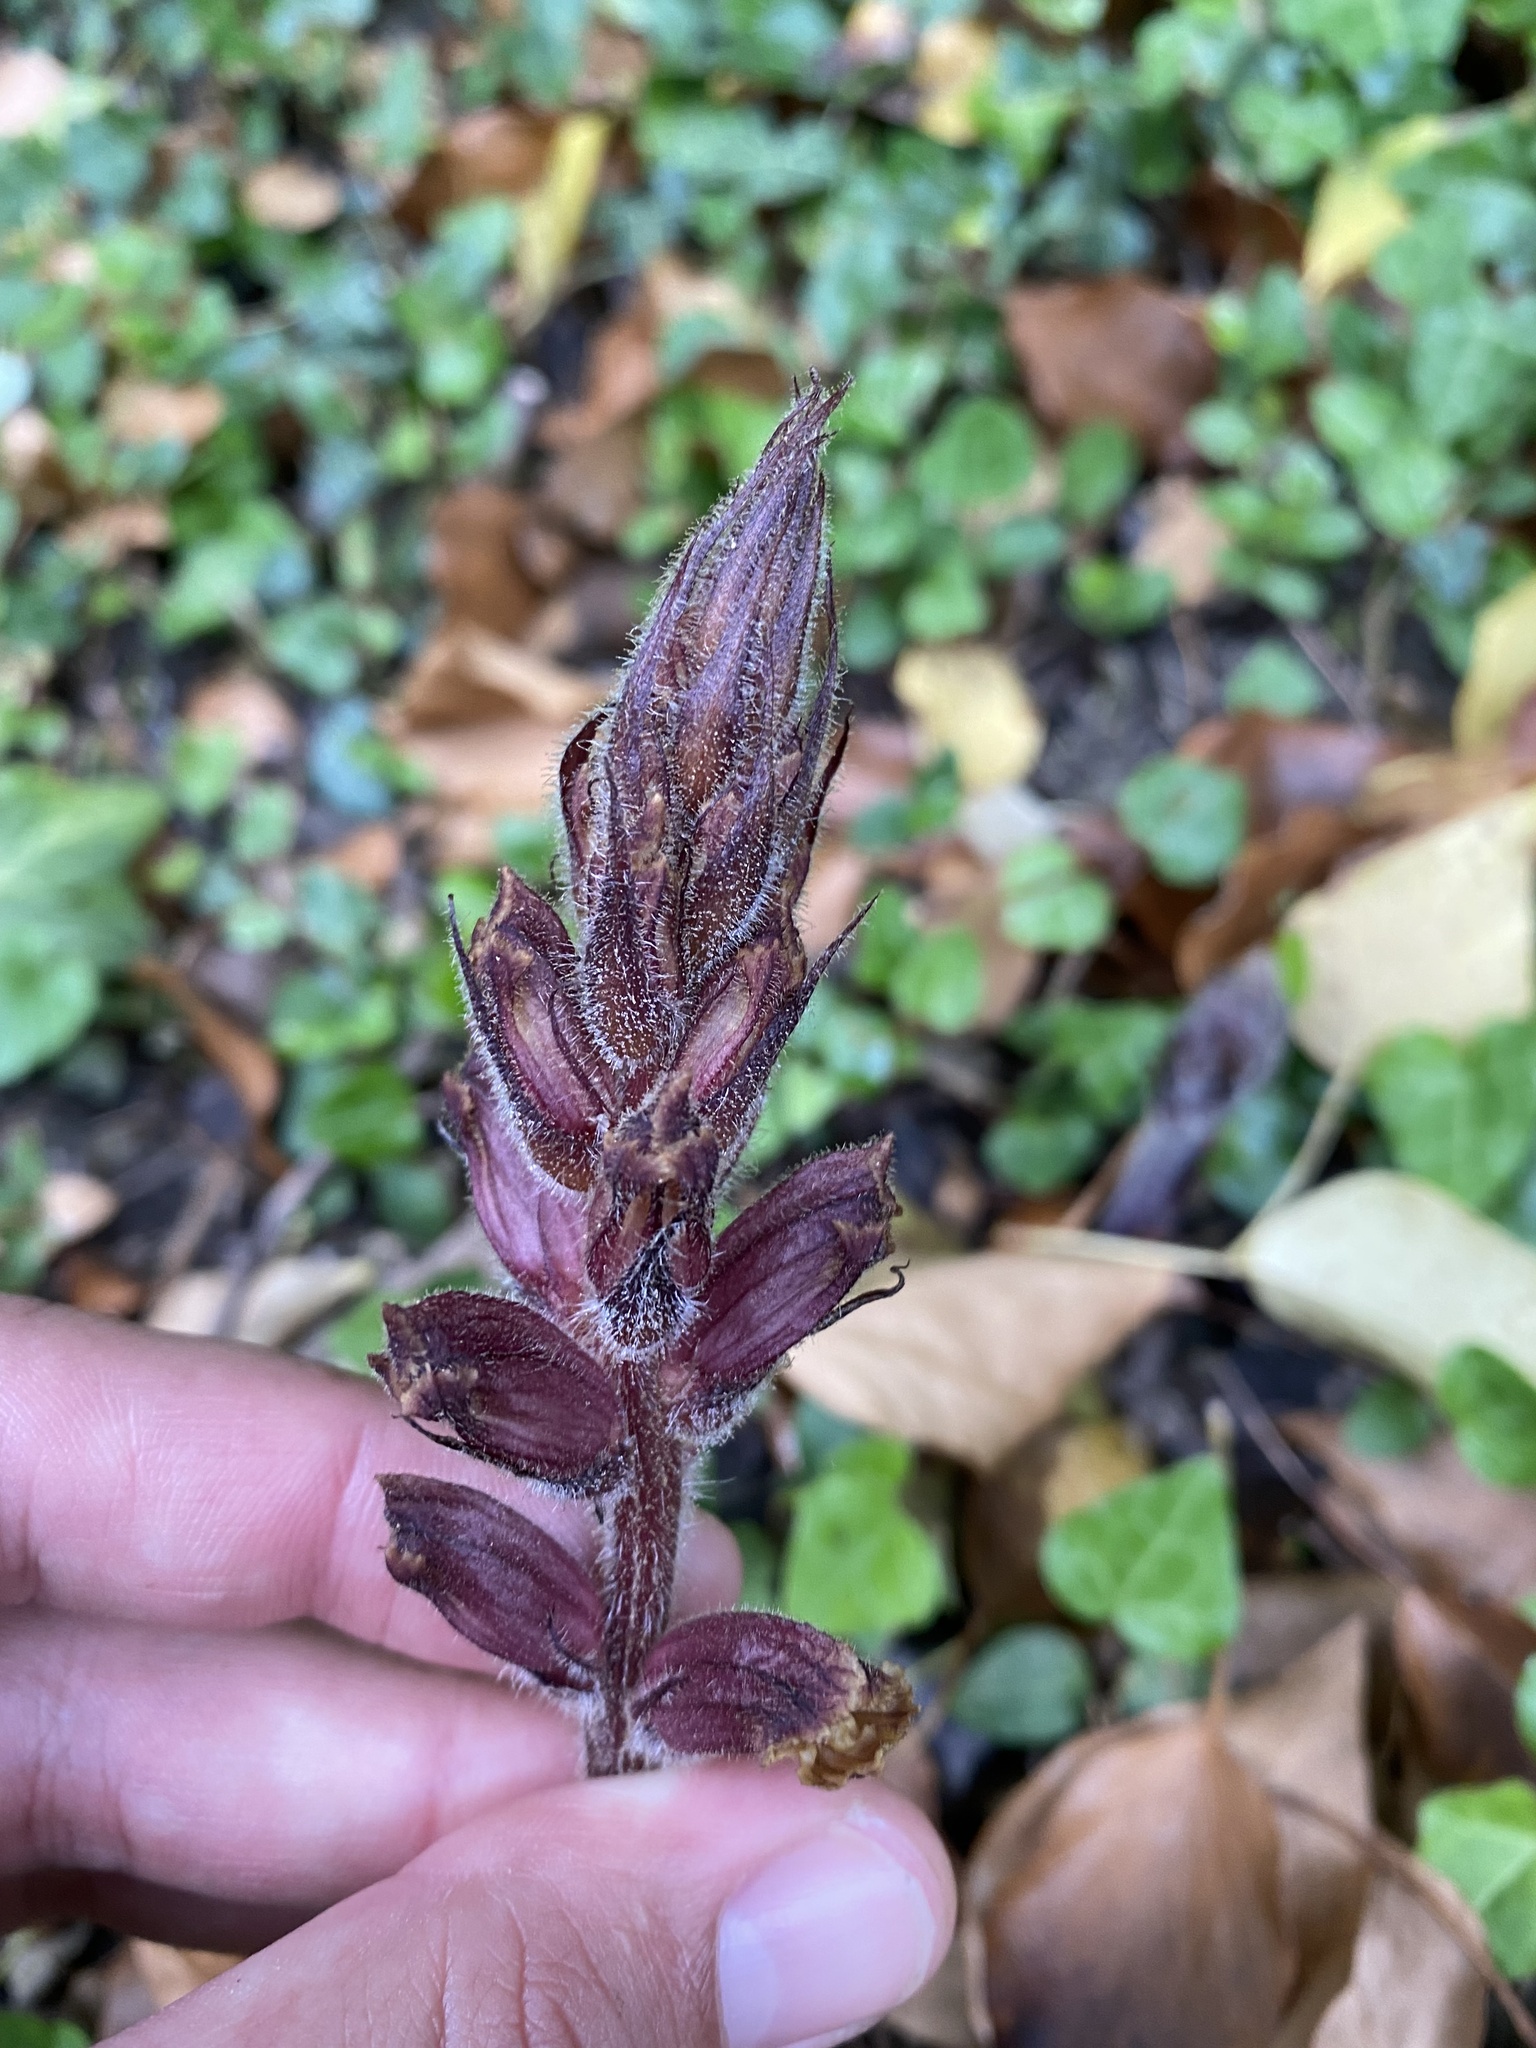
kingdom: Plantae
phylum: Tracheophyta
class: Magnoliopsida
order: Lamiales
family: Orobanchaceae
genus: Orobanche
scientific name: Orobanche laxissima
